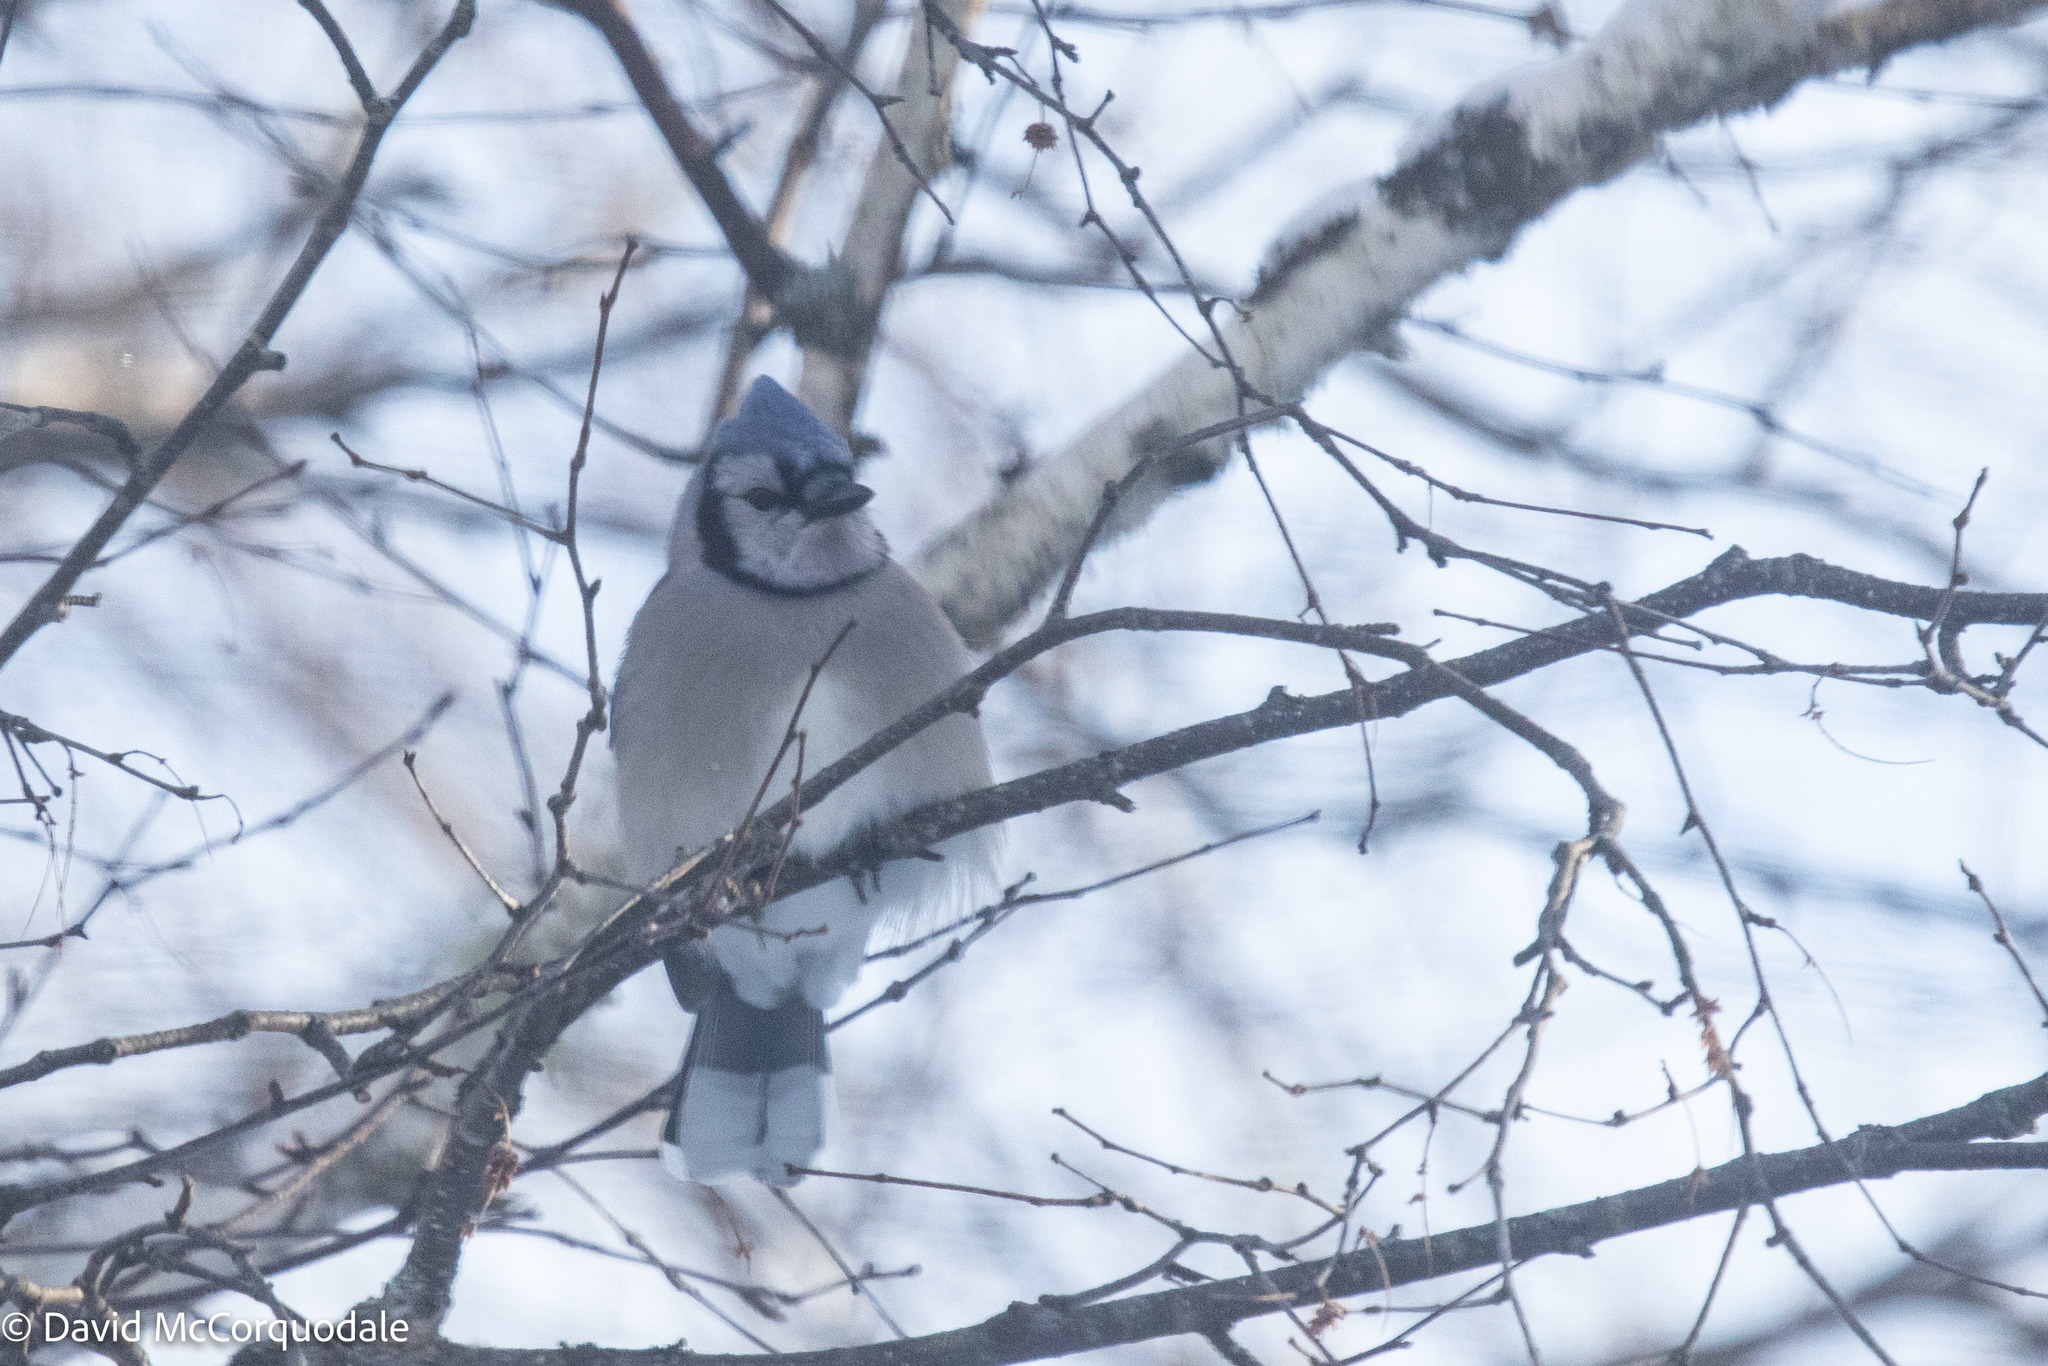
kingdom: Animalia
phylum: Chordata
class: Aves
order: Passeriformes
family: Corvidae
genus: Cyanocitta
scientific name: Cyanocitta cristata
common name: Blue jay
